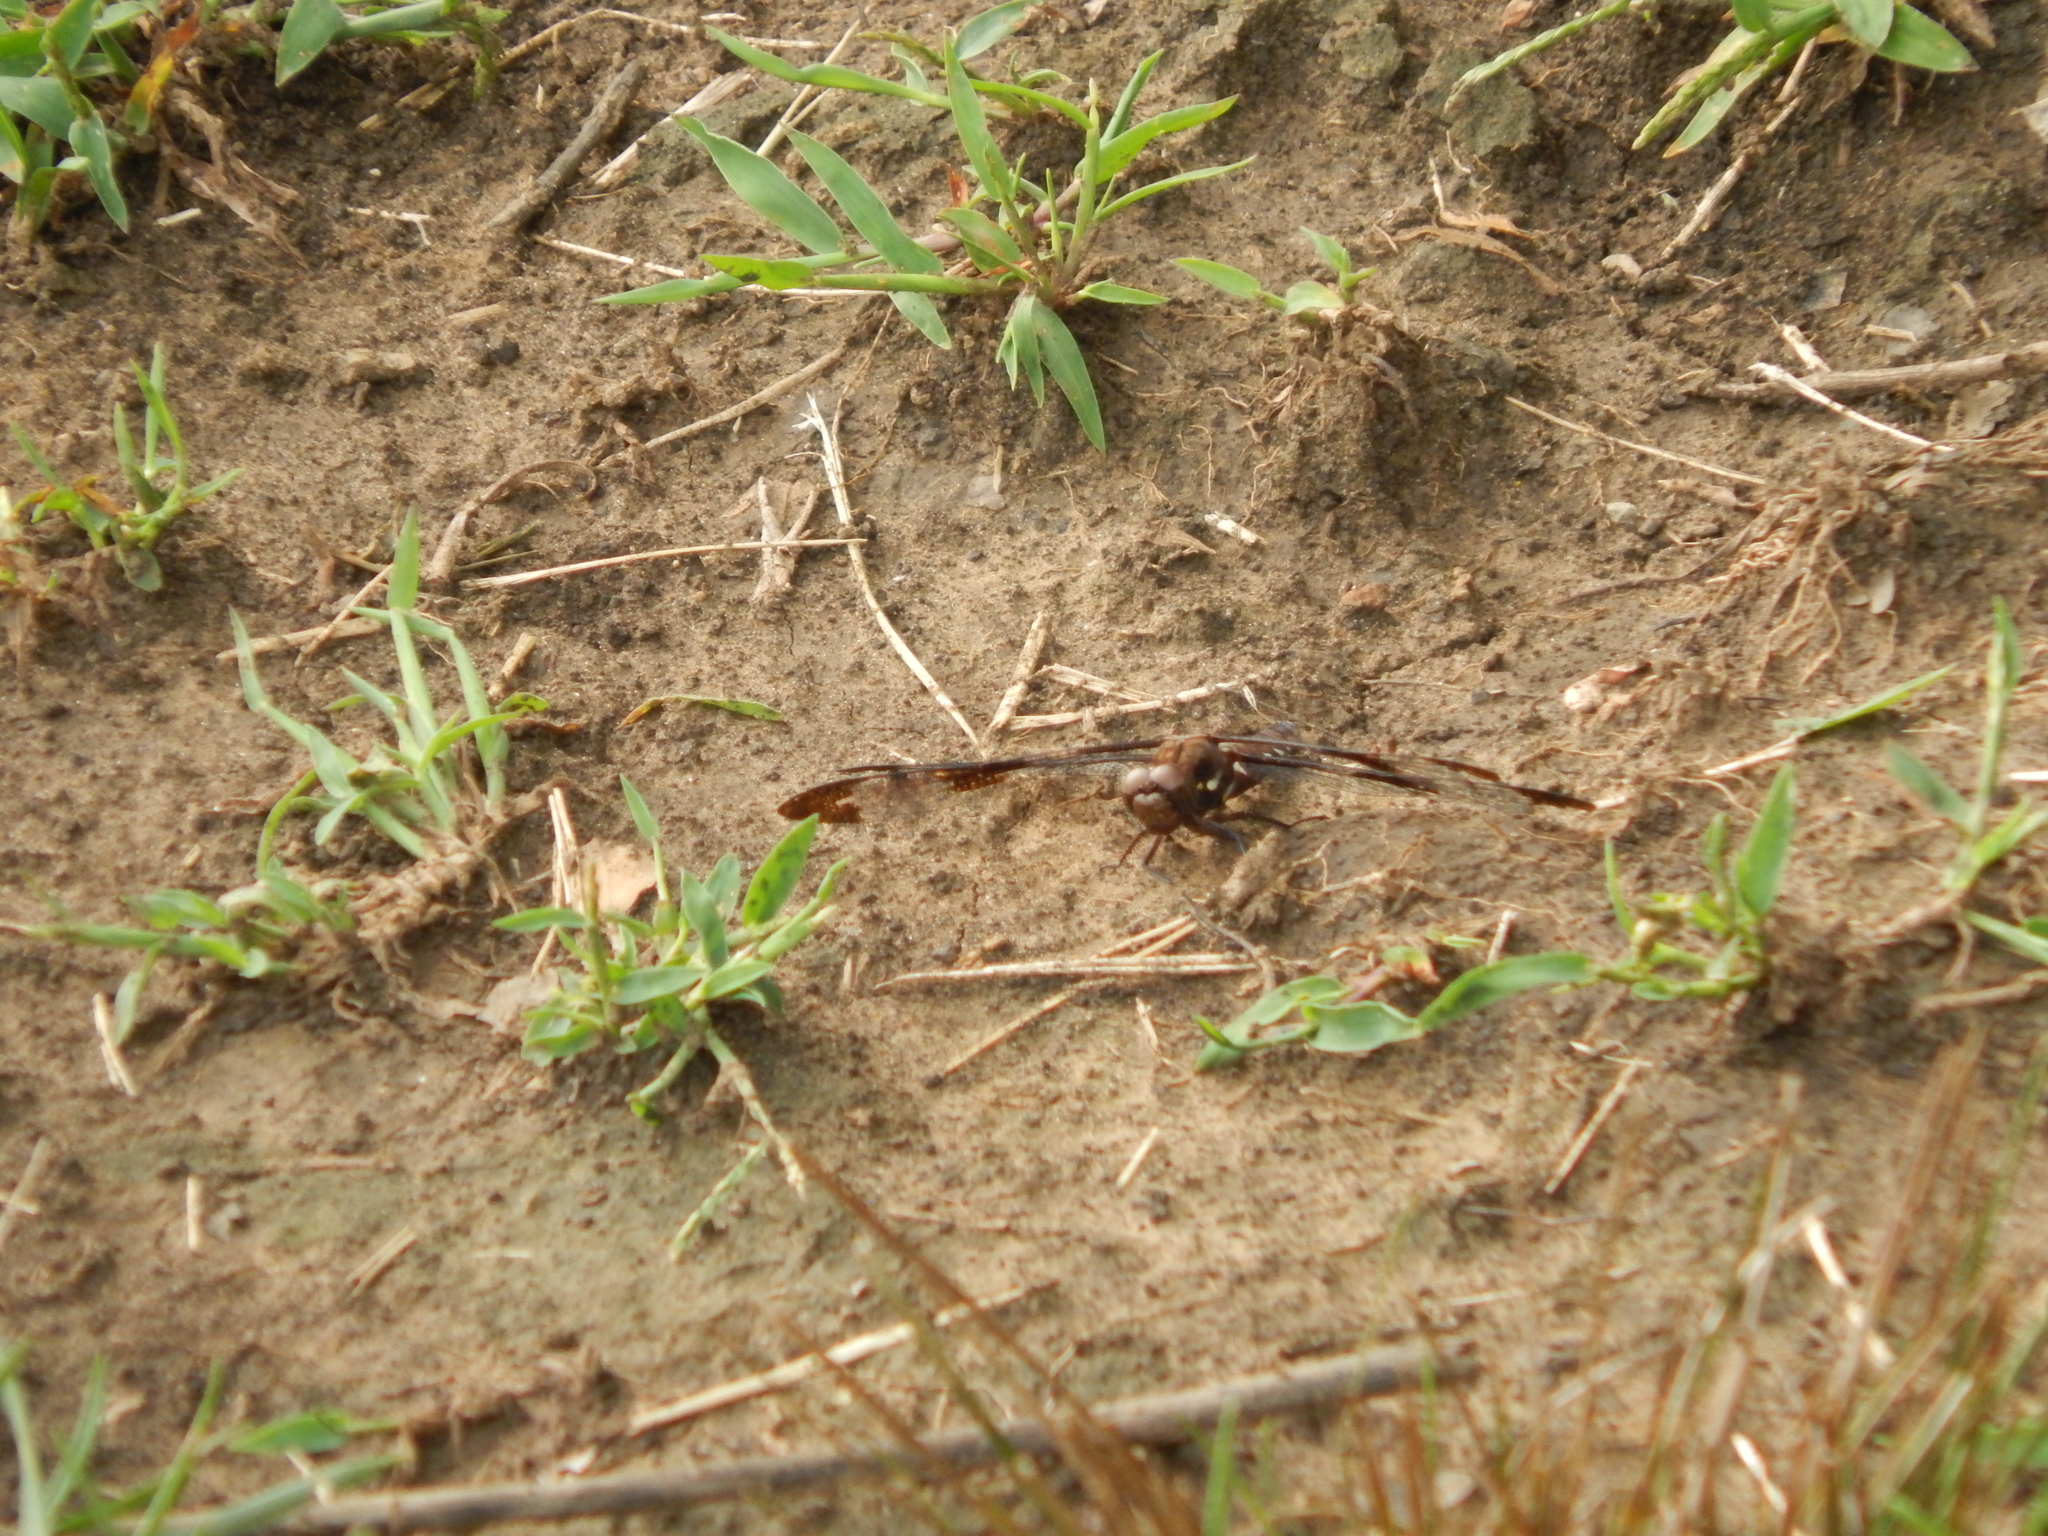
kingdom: Animalia
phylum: Arthropoda
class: Insecta
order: Odonata
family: Libellulidae
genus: Plathemis
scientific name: Plathemis lydia
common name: Common whitetail
